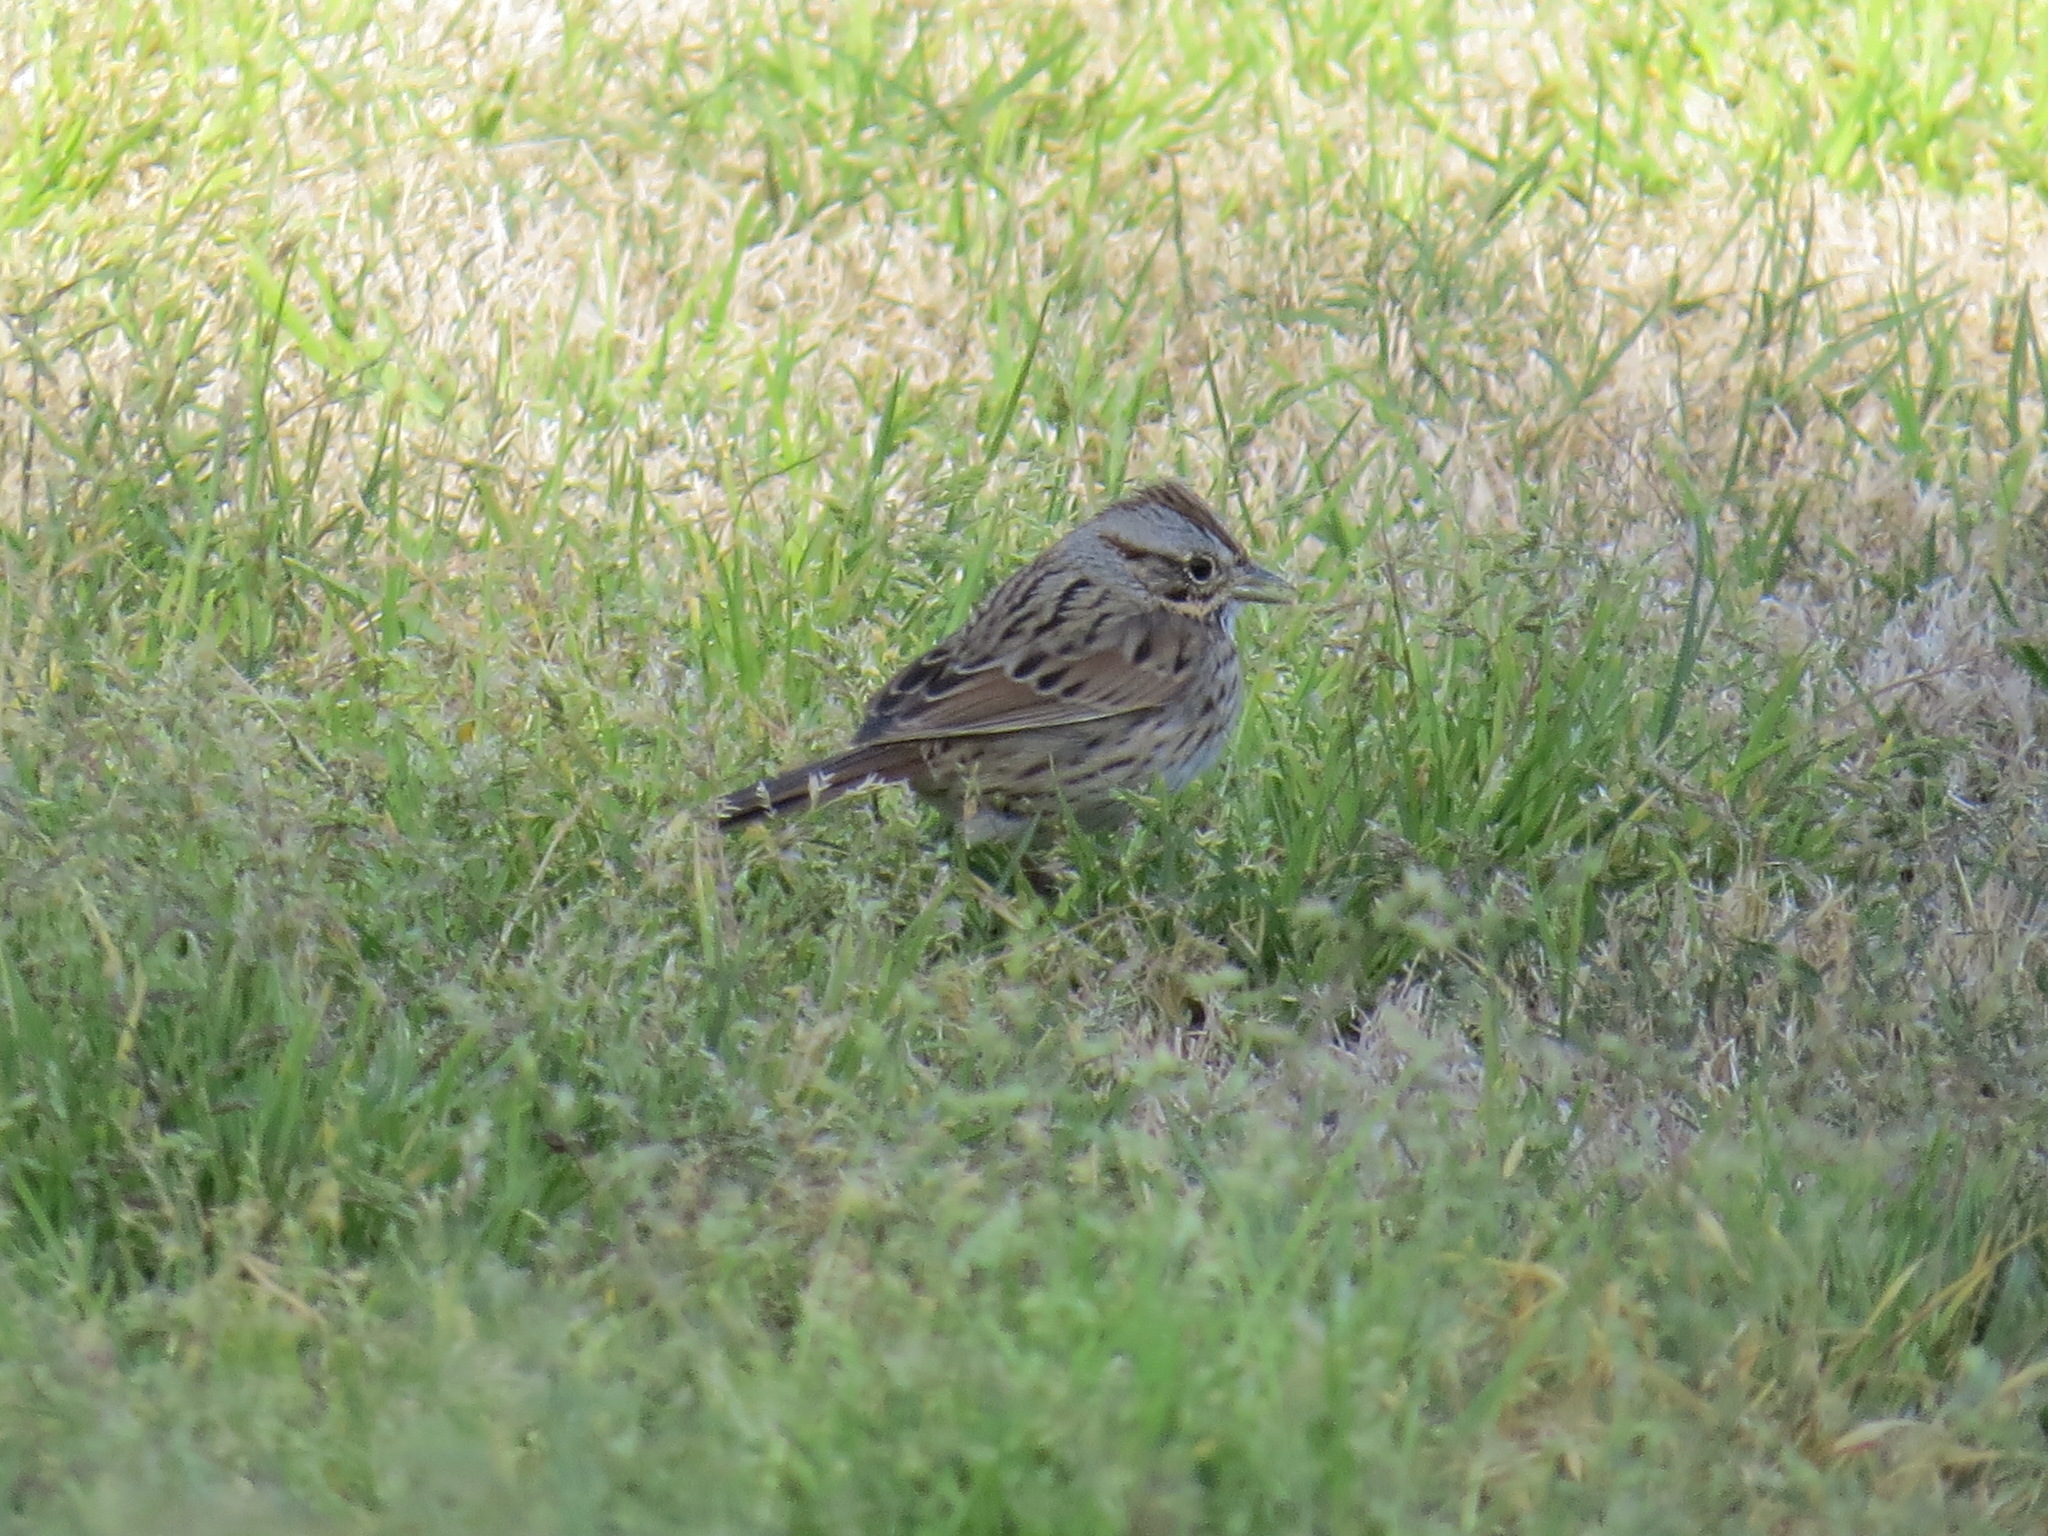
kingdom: Animalia
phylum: Chordata
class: Aves
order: Passeriformes
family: Passerellidae
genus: Melospiza
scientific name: Melospiza lincolnii
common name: Lincoln's sparrow
